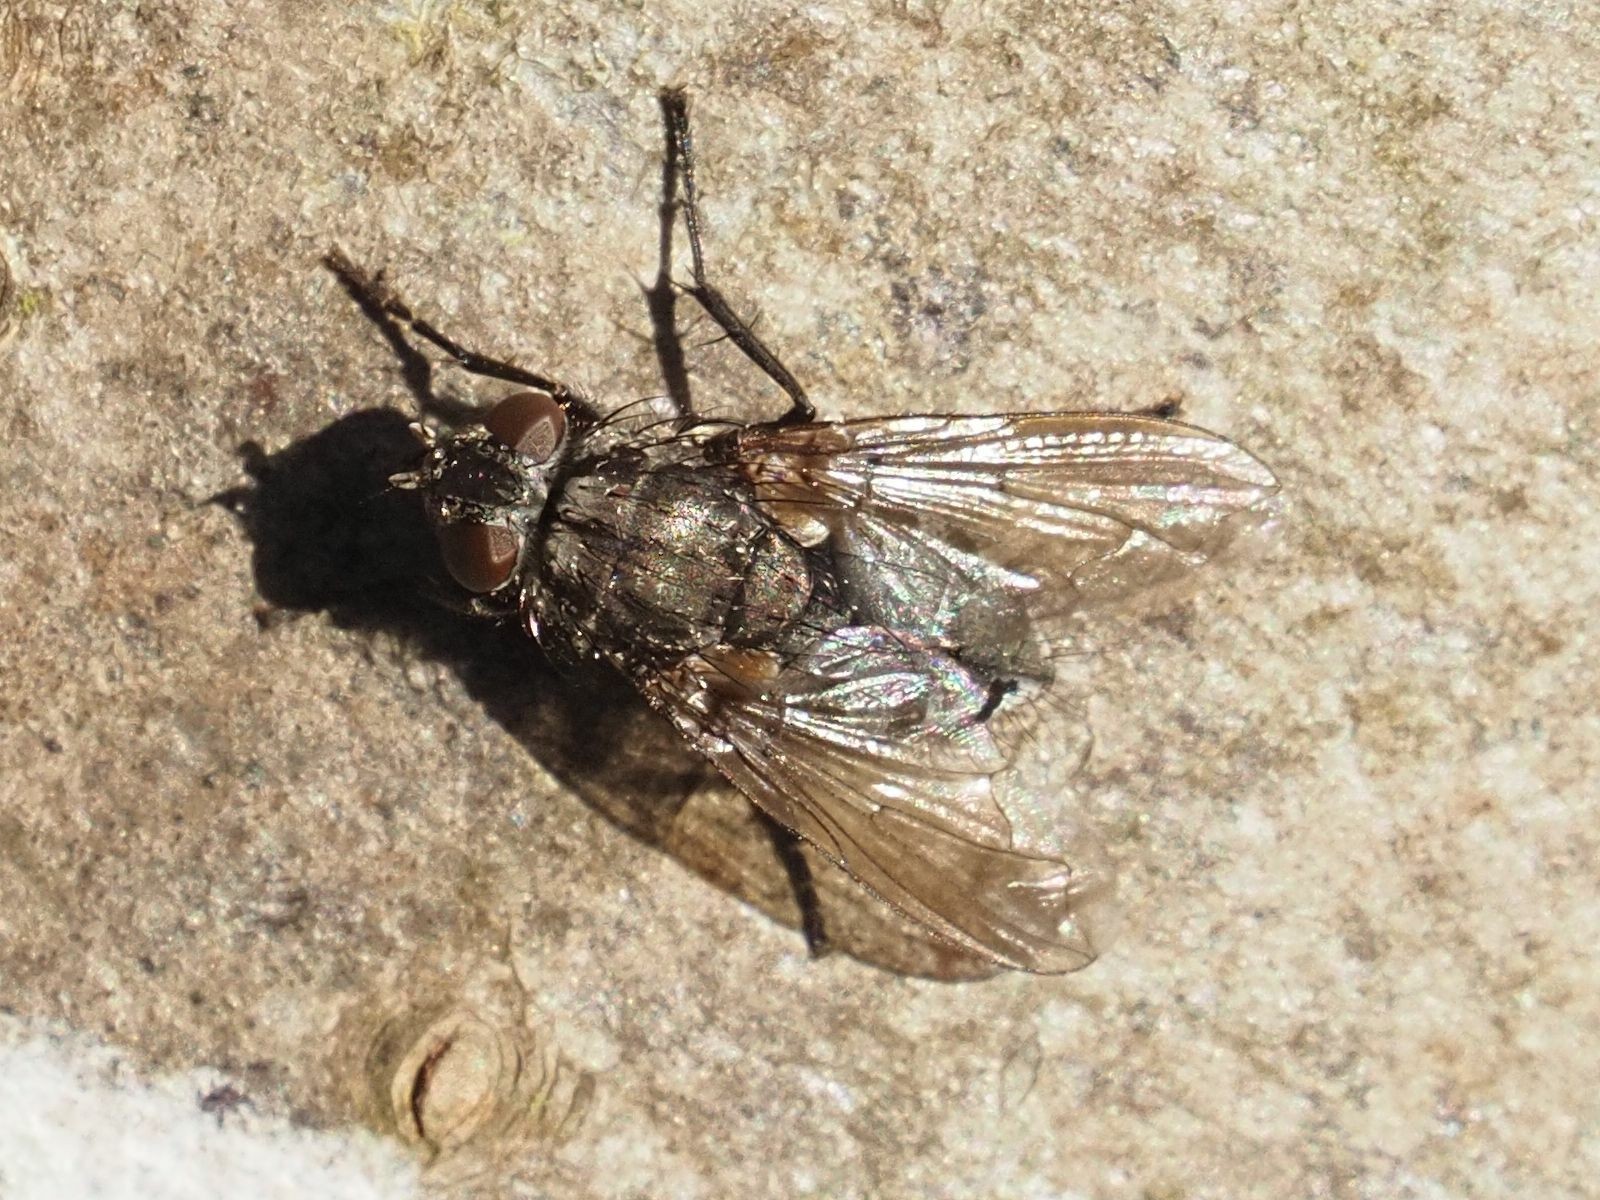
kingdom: Animalia
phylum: Arthropoda
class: Insecta
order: Diptera
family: Polleniidae
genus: Pollenia
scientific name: Pollenia vagabunda
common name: Vagabund cluster fly
